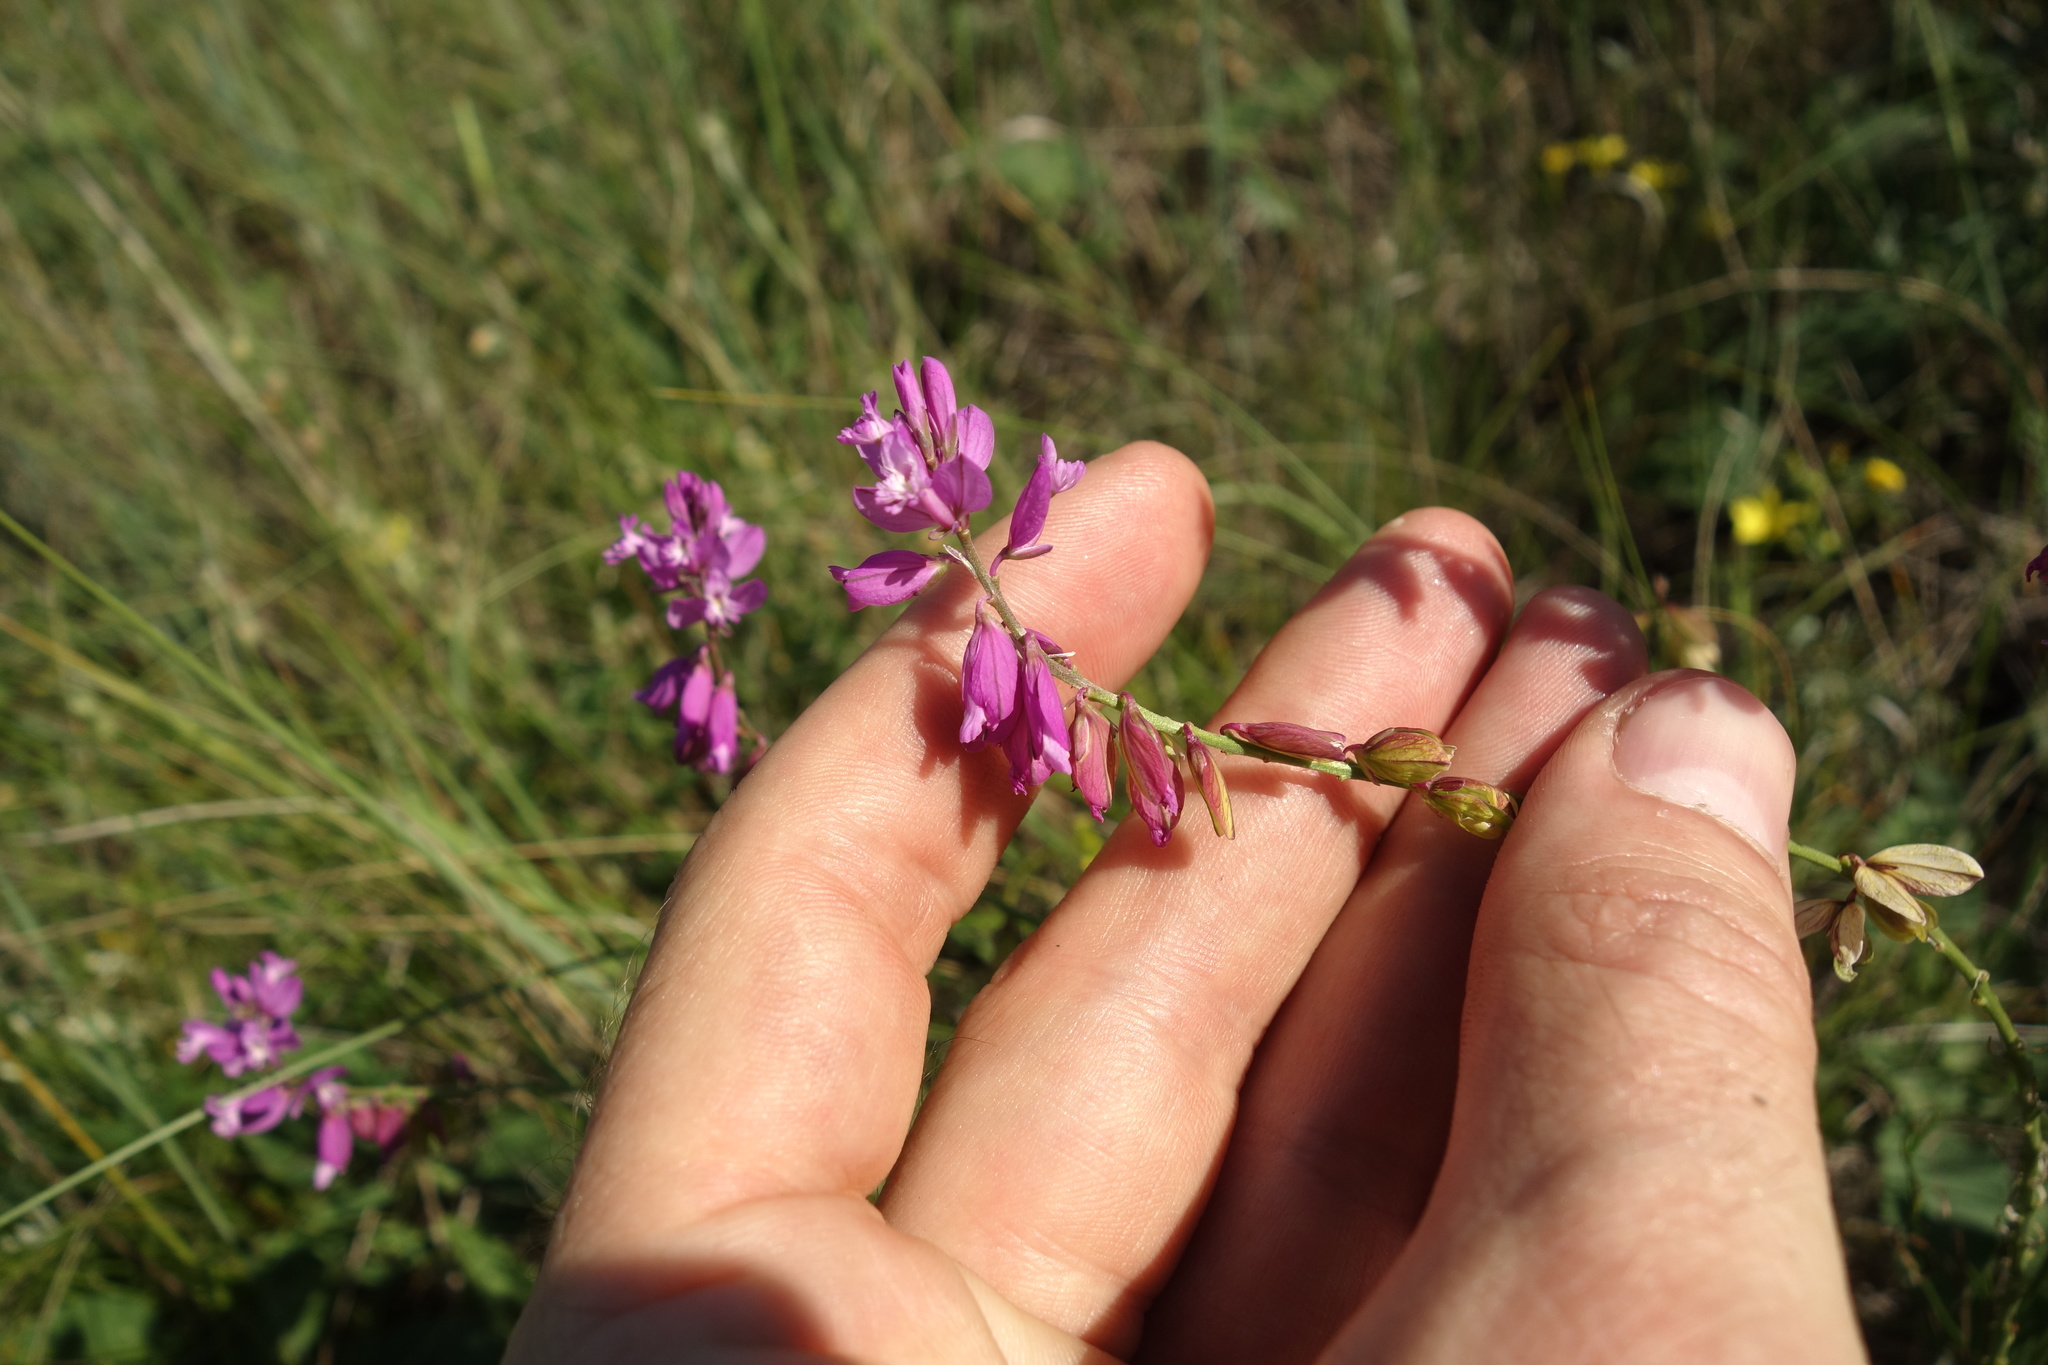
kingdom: Plantae
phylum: Tracheophyta
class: Magnoliopsida
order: Fabales
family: Polygalaceae
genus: Polygala
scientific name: Polygala nicaeensis
